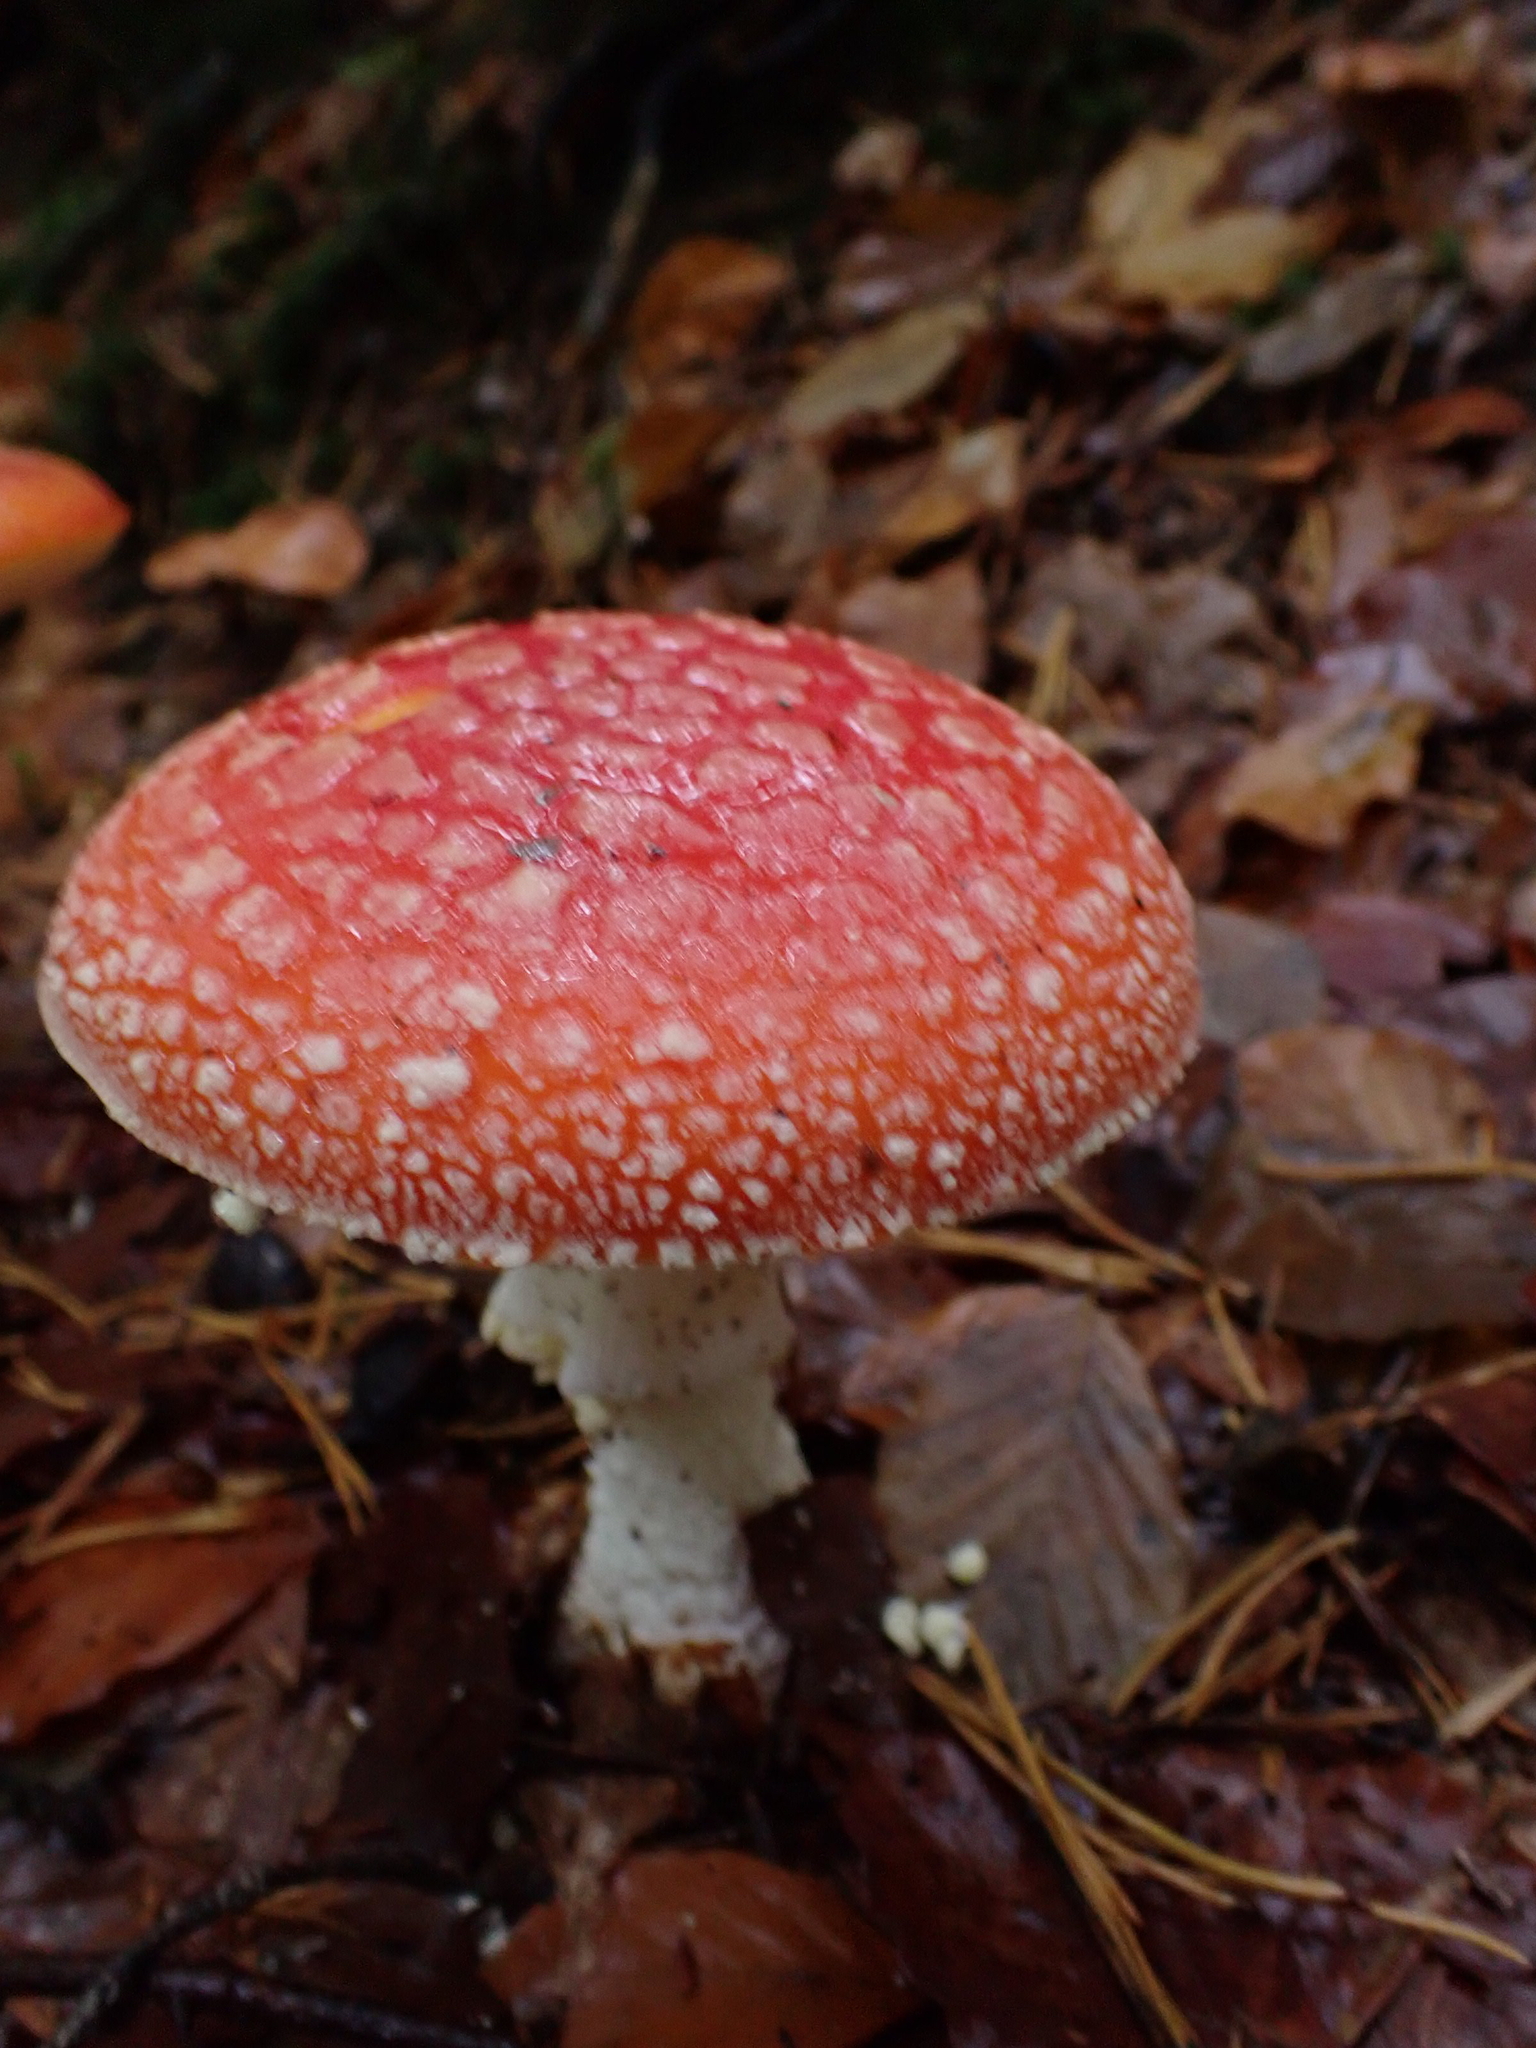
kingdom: Fungi
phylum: Basidiomycota
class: Agaricomycetes
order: Agaricales
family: Amanitaceae
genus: Amanita
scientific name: Amanita muscaria
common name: Fly agaric
